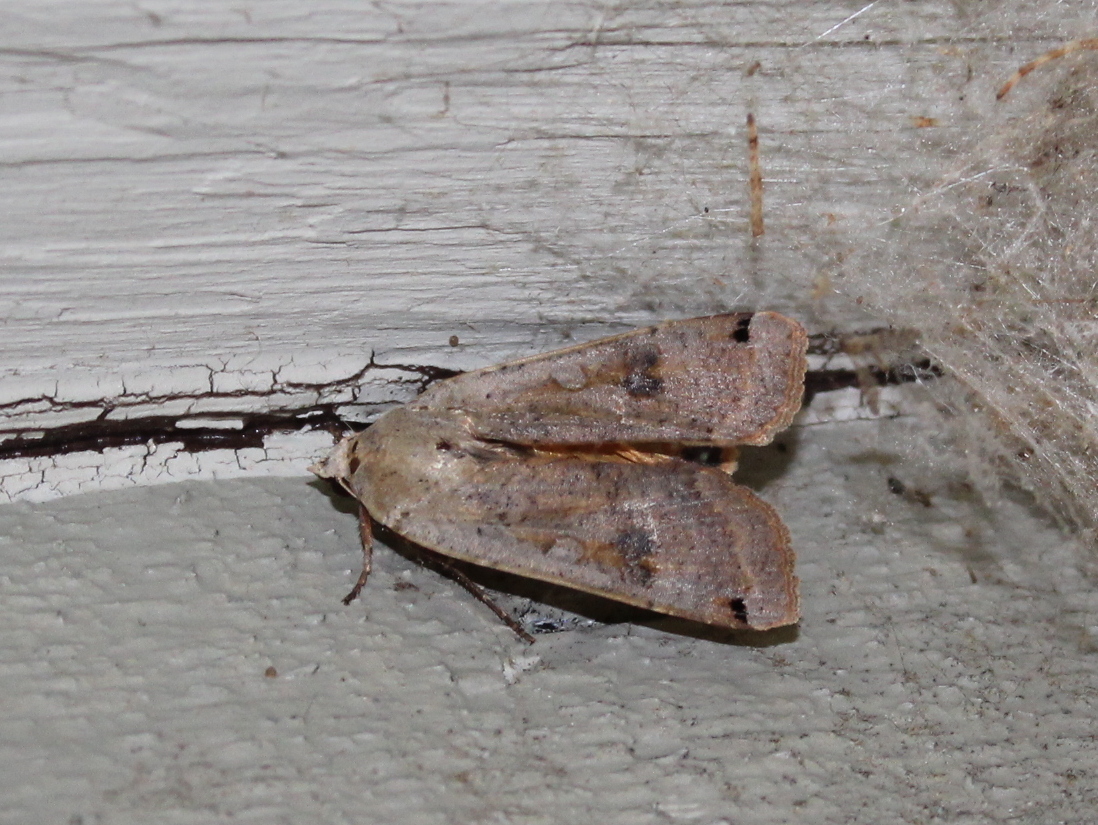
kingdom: Animalia
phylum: Arthropoda
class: Insecta
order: Lepidoptera
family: Noctuidae
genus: Noctua
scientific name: Noctua pronuba
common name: Large yellow underwing
